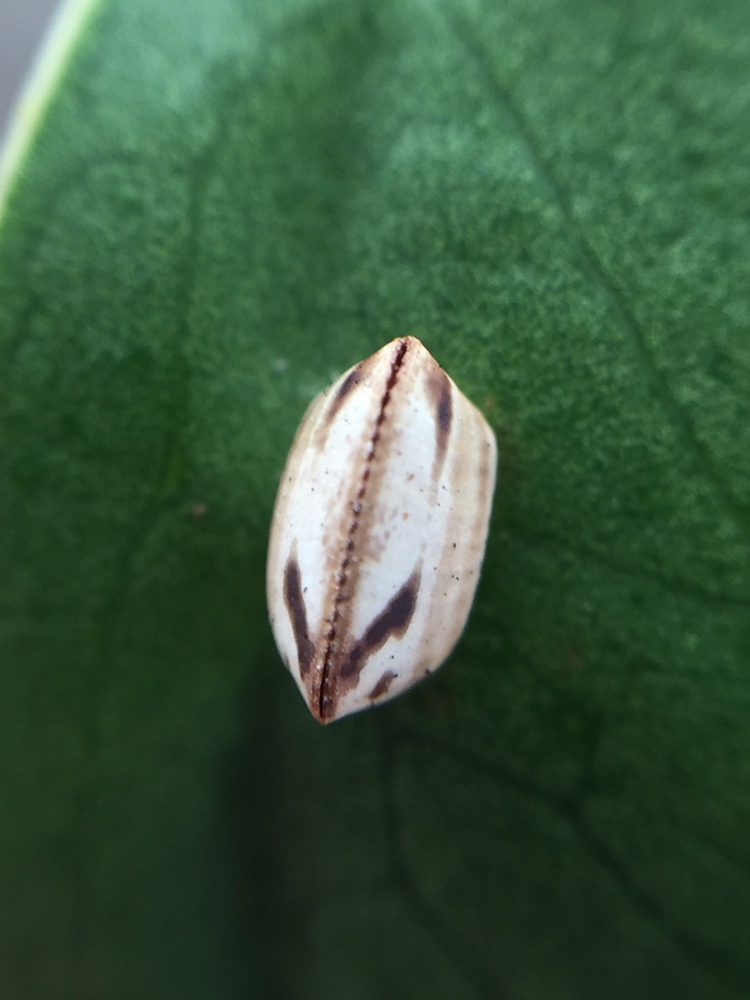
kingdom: Animalia
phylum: Arthropoda
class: Insecta
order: Blattodea
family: Ectobiidae
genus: Balta
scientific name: Balta bicolor
